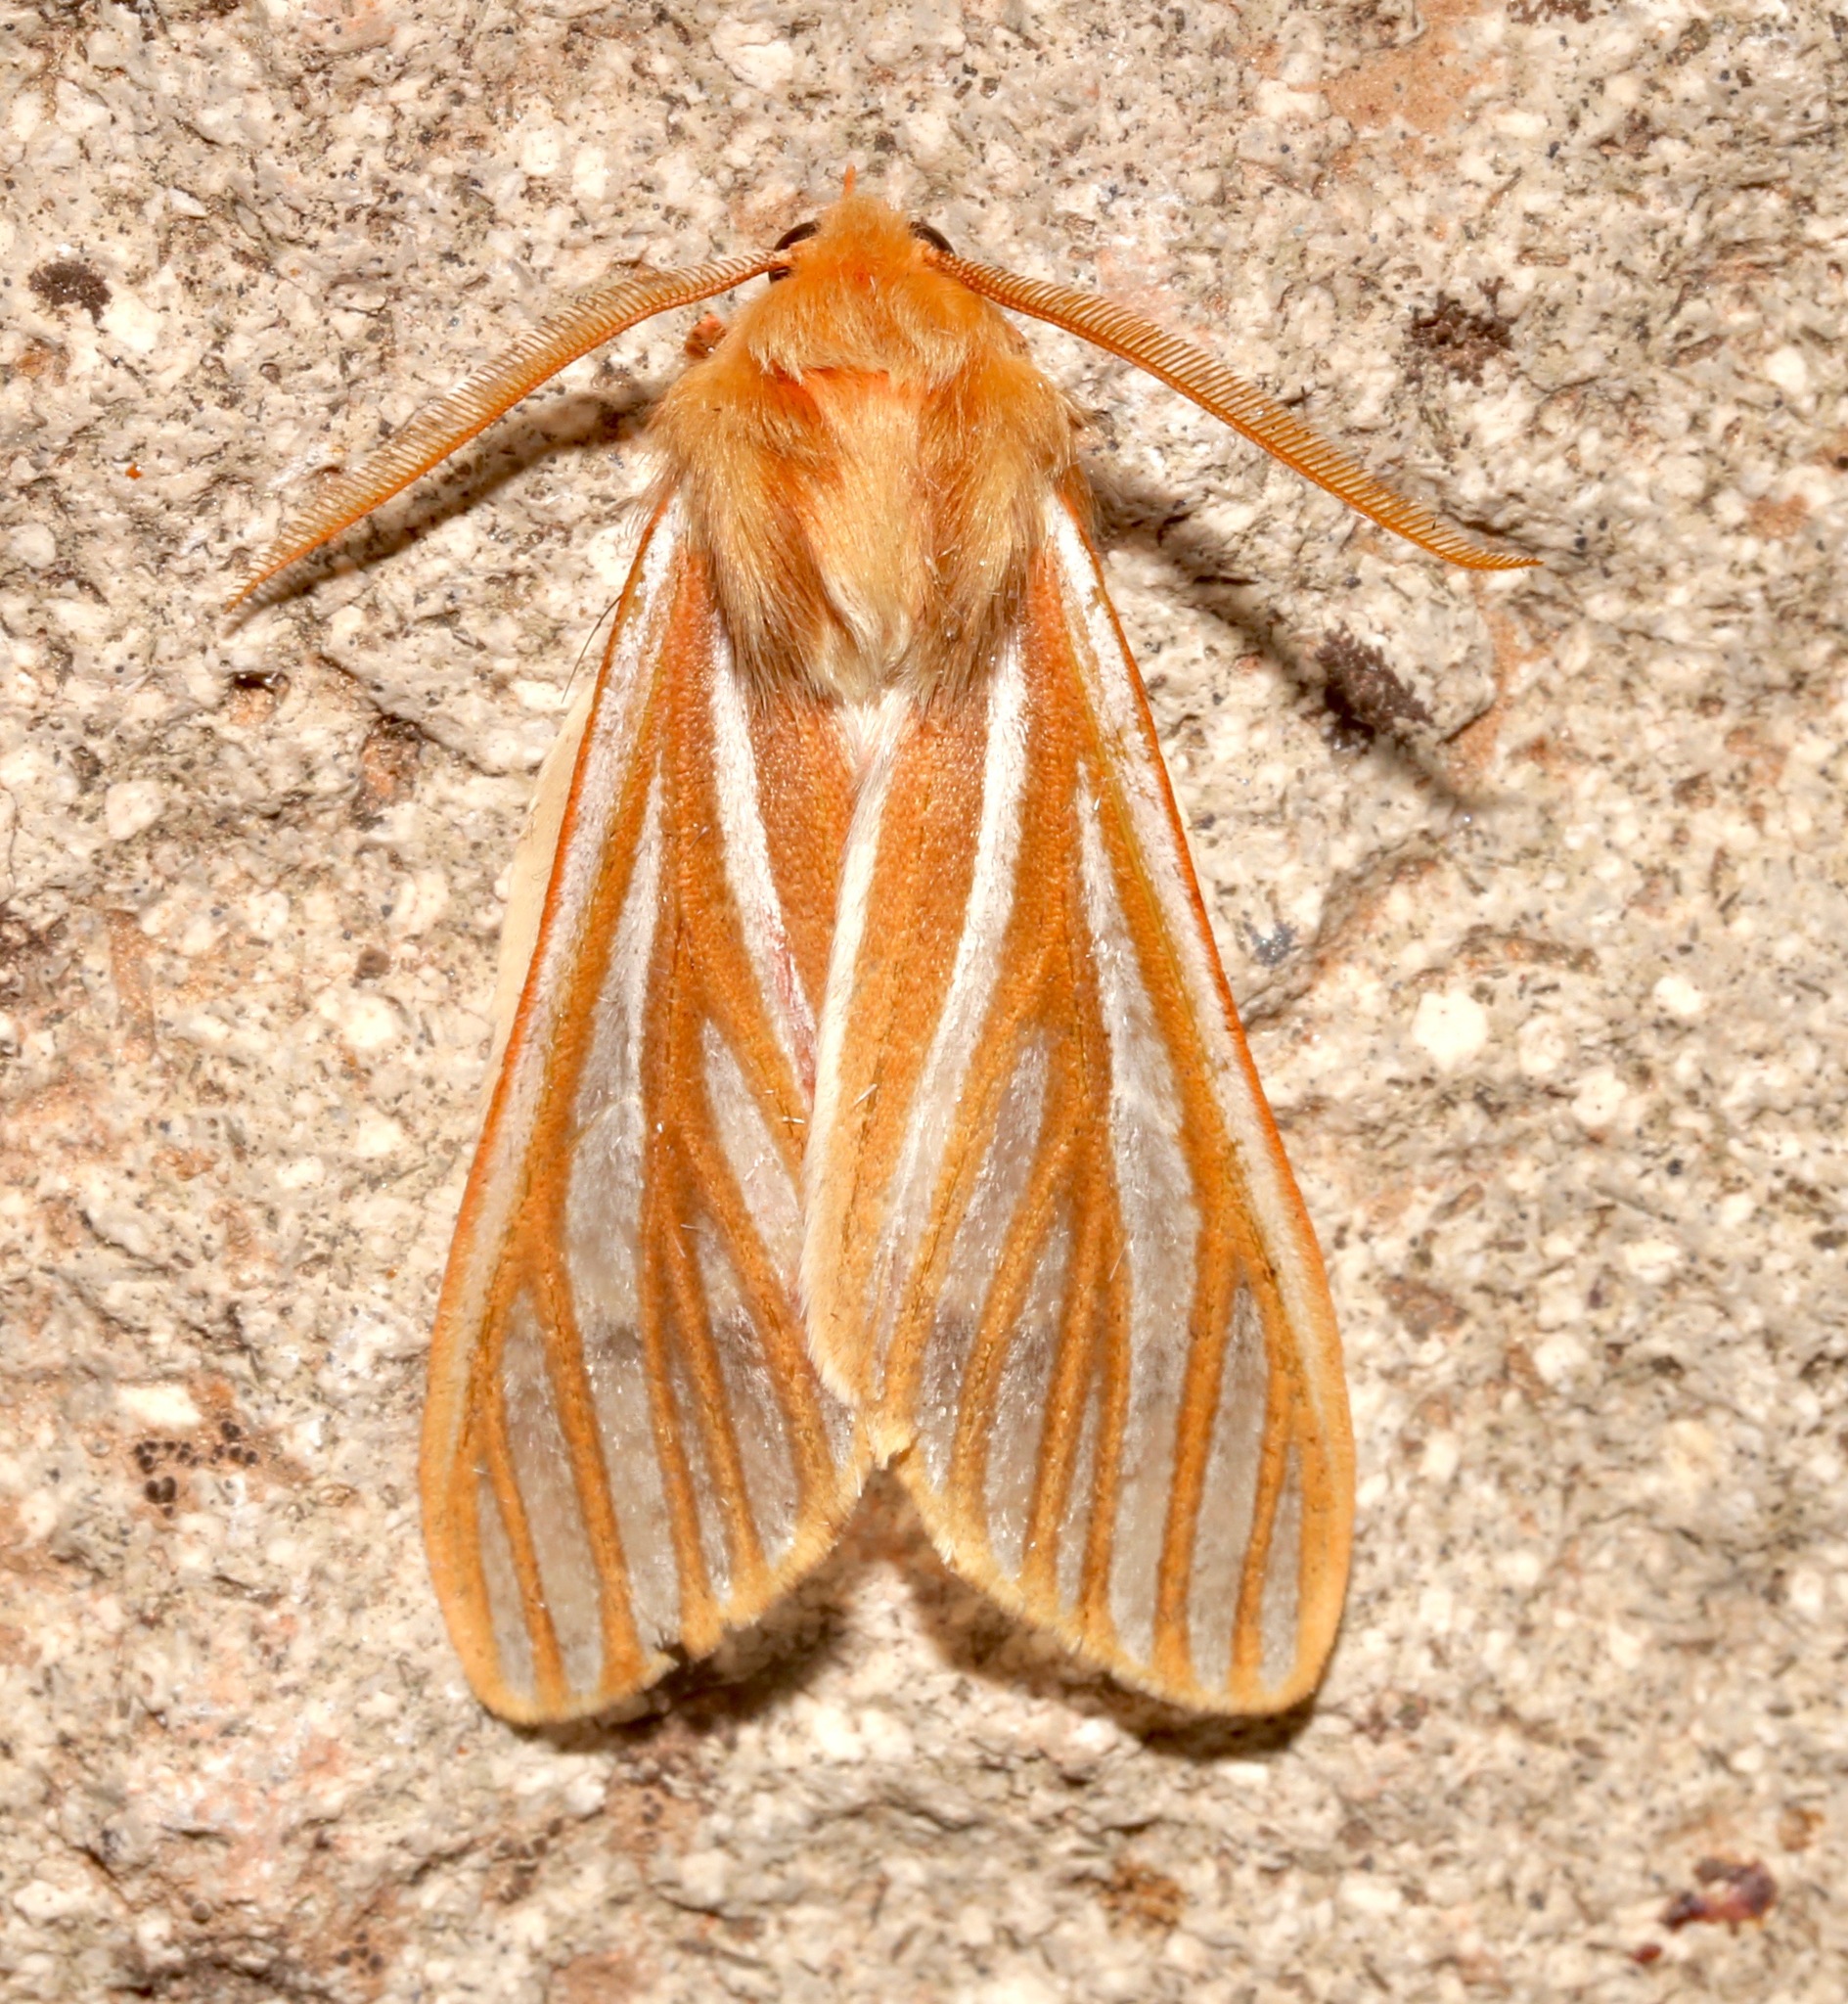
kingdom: Animalia
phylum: Arthropoda
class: Insecta
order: Lepidoptera
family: Erebidae
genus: Hemihyalea
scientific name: Hemihyalea ambigua
